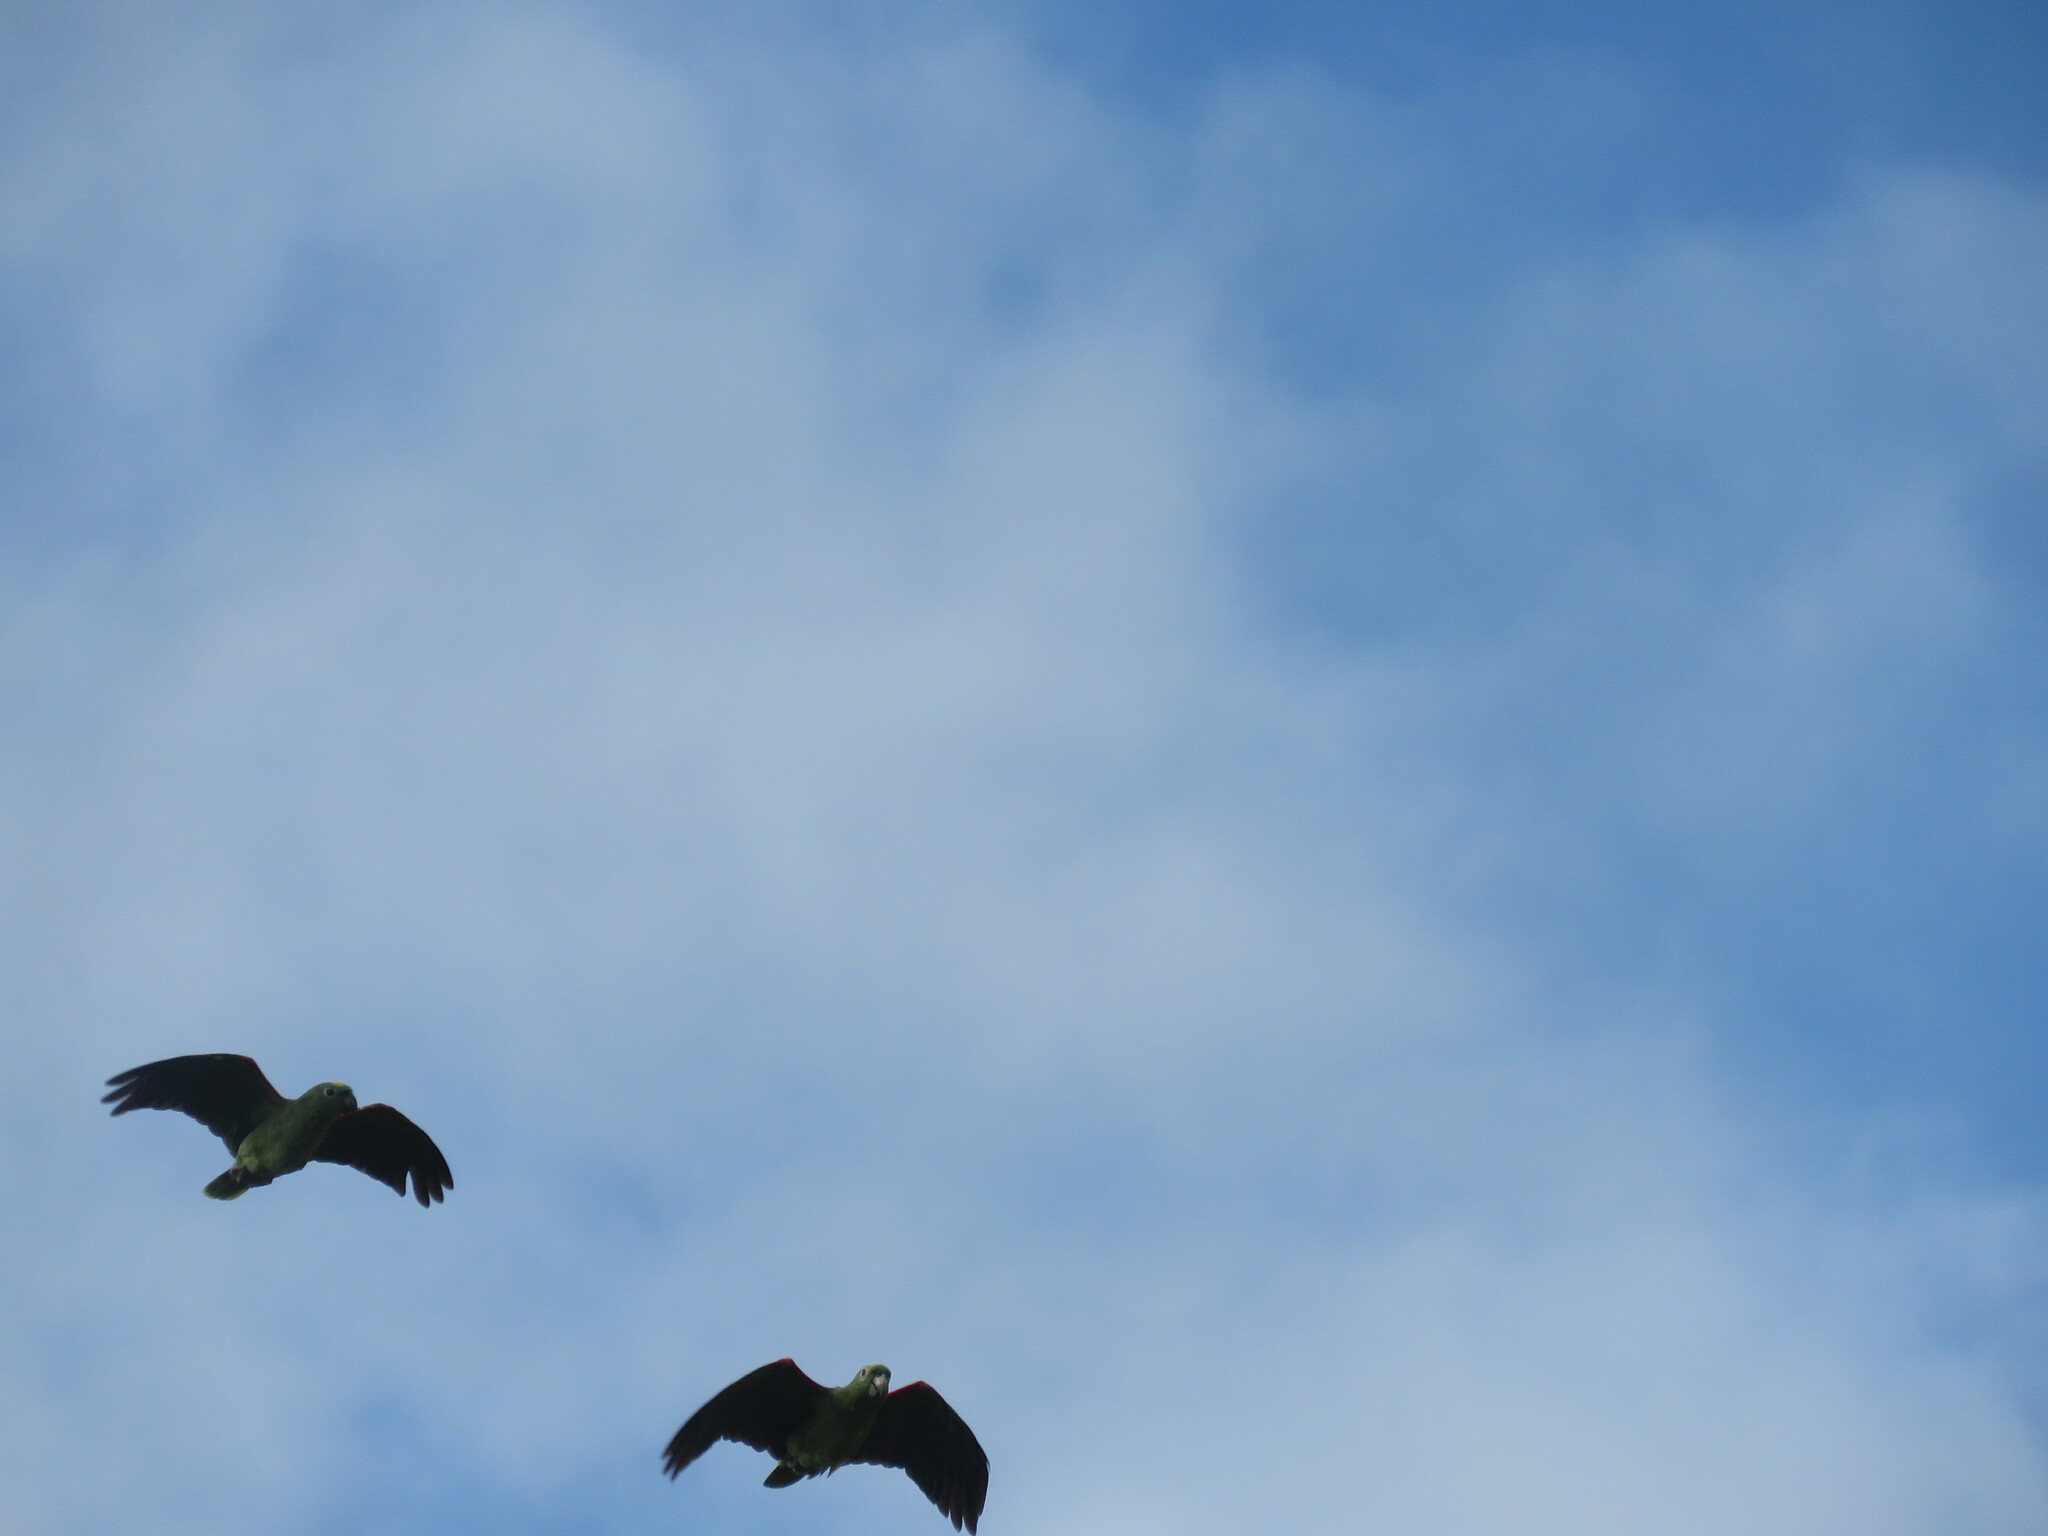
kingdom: Animalia
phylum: Chordata
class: Aves
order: Psittaciformes
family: Psittacidae
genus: Amazona
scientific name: Amazona ochrocephala
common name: Yellow-crowned amazon
